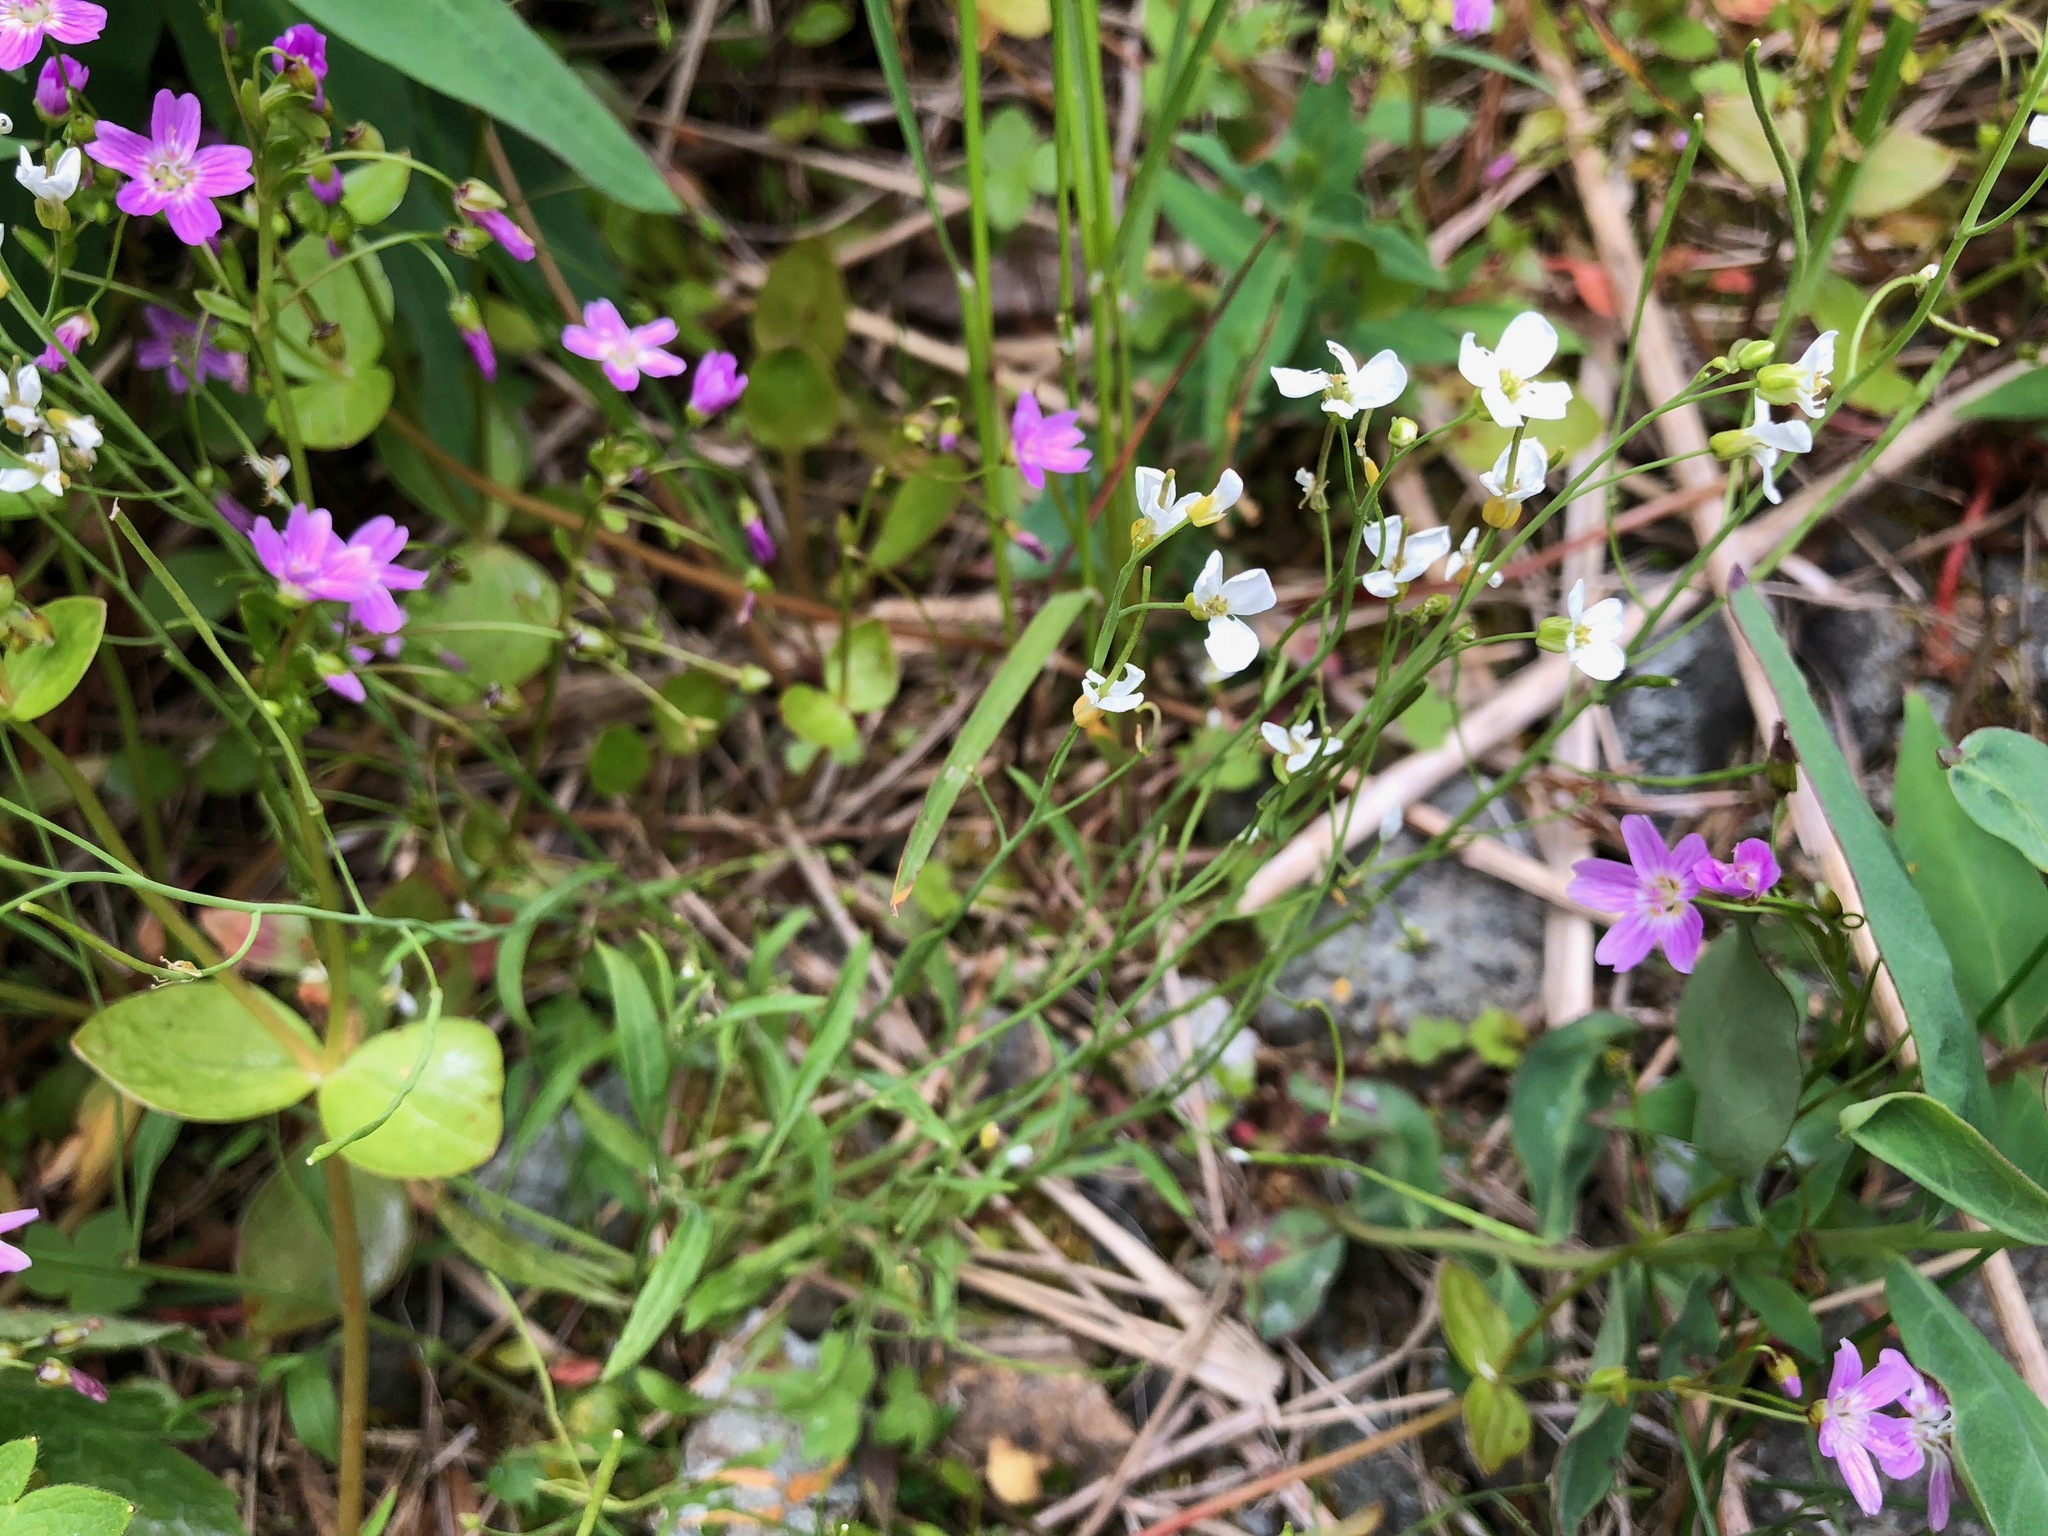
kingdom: Plantae
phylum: Tracheophyta
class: Magnoliopsida
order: Caryophyllales
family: Montiaceae
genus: Claytonia
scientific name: Claytonia sibirica
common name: Pink purslane
